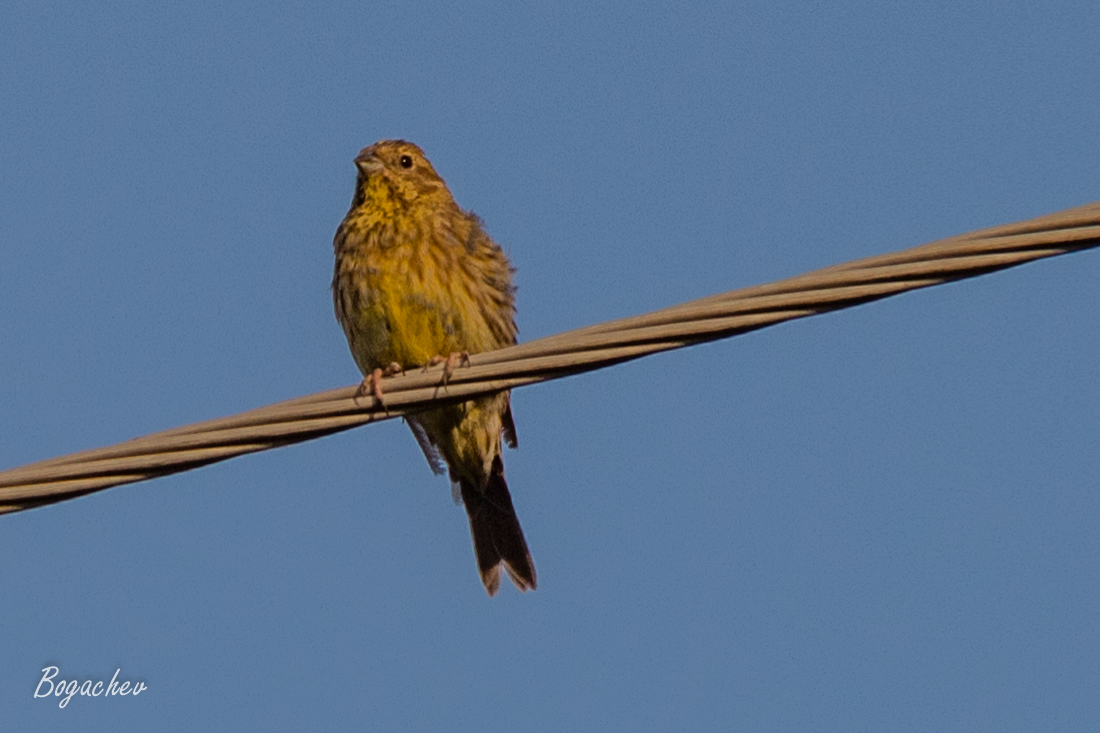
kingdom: Animalia
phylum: Chordata
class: Aves
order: Passeriformes
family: Emberizidae
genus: Emberiza
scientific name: Emberiza citrinella
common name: Yellowhammer
